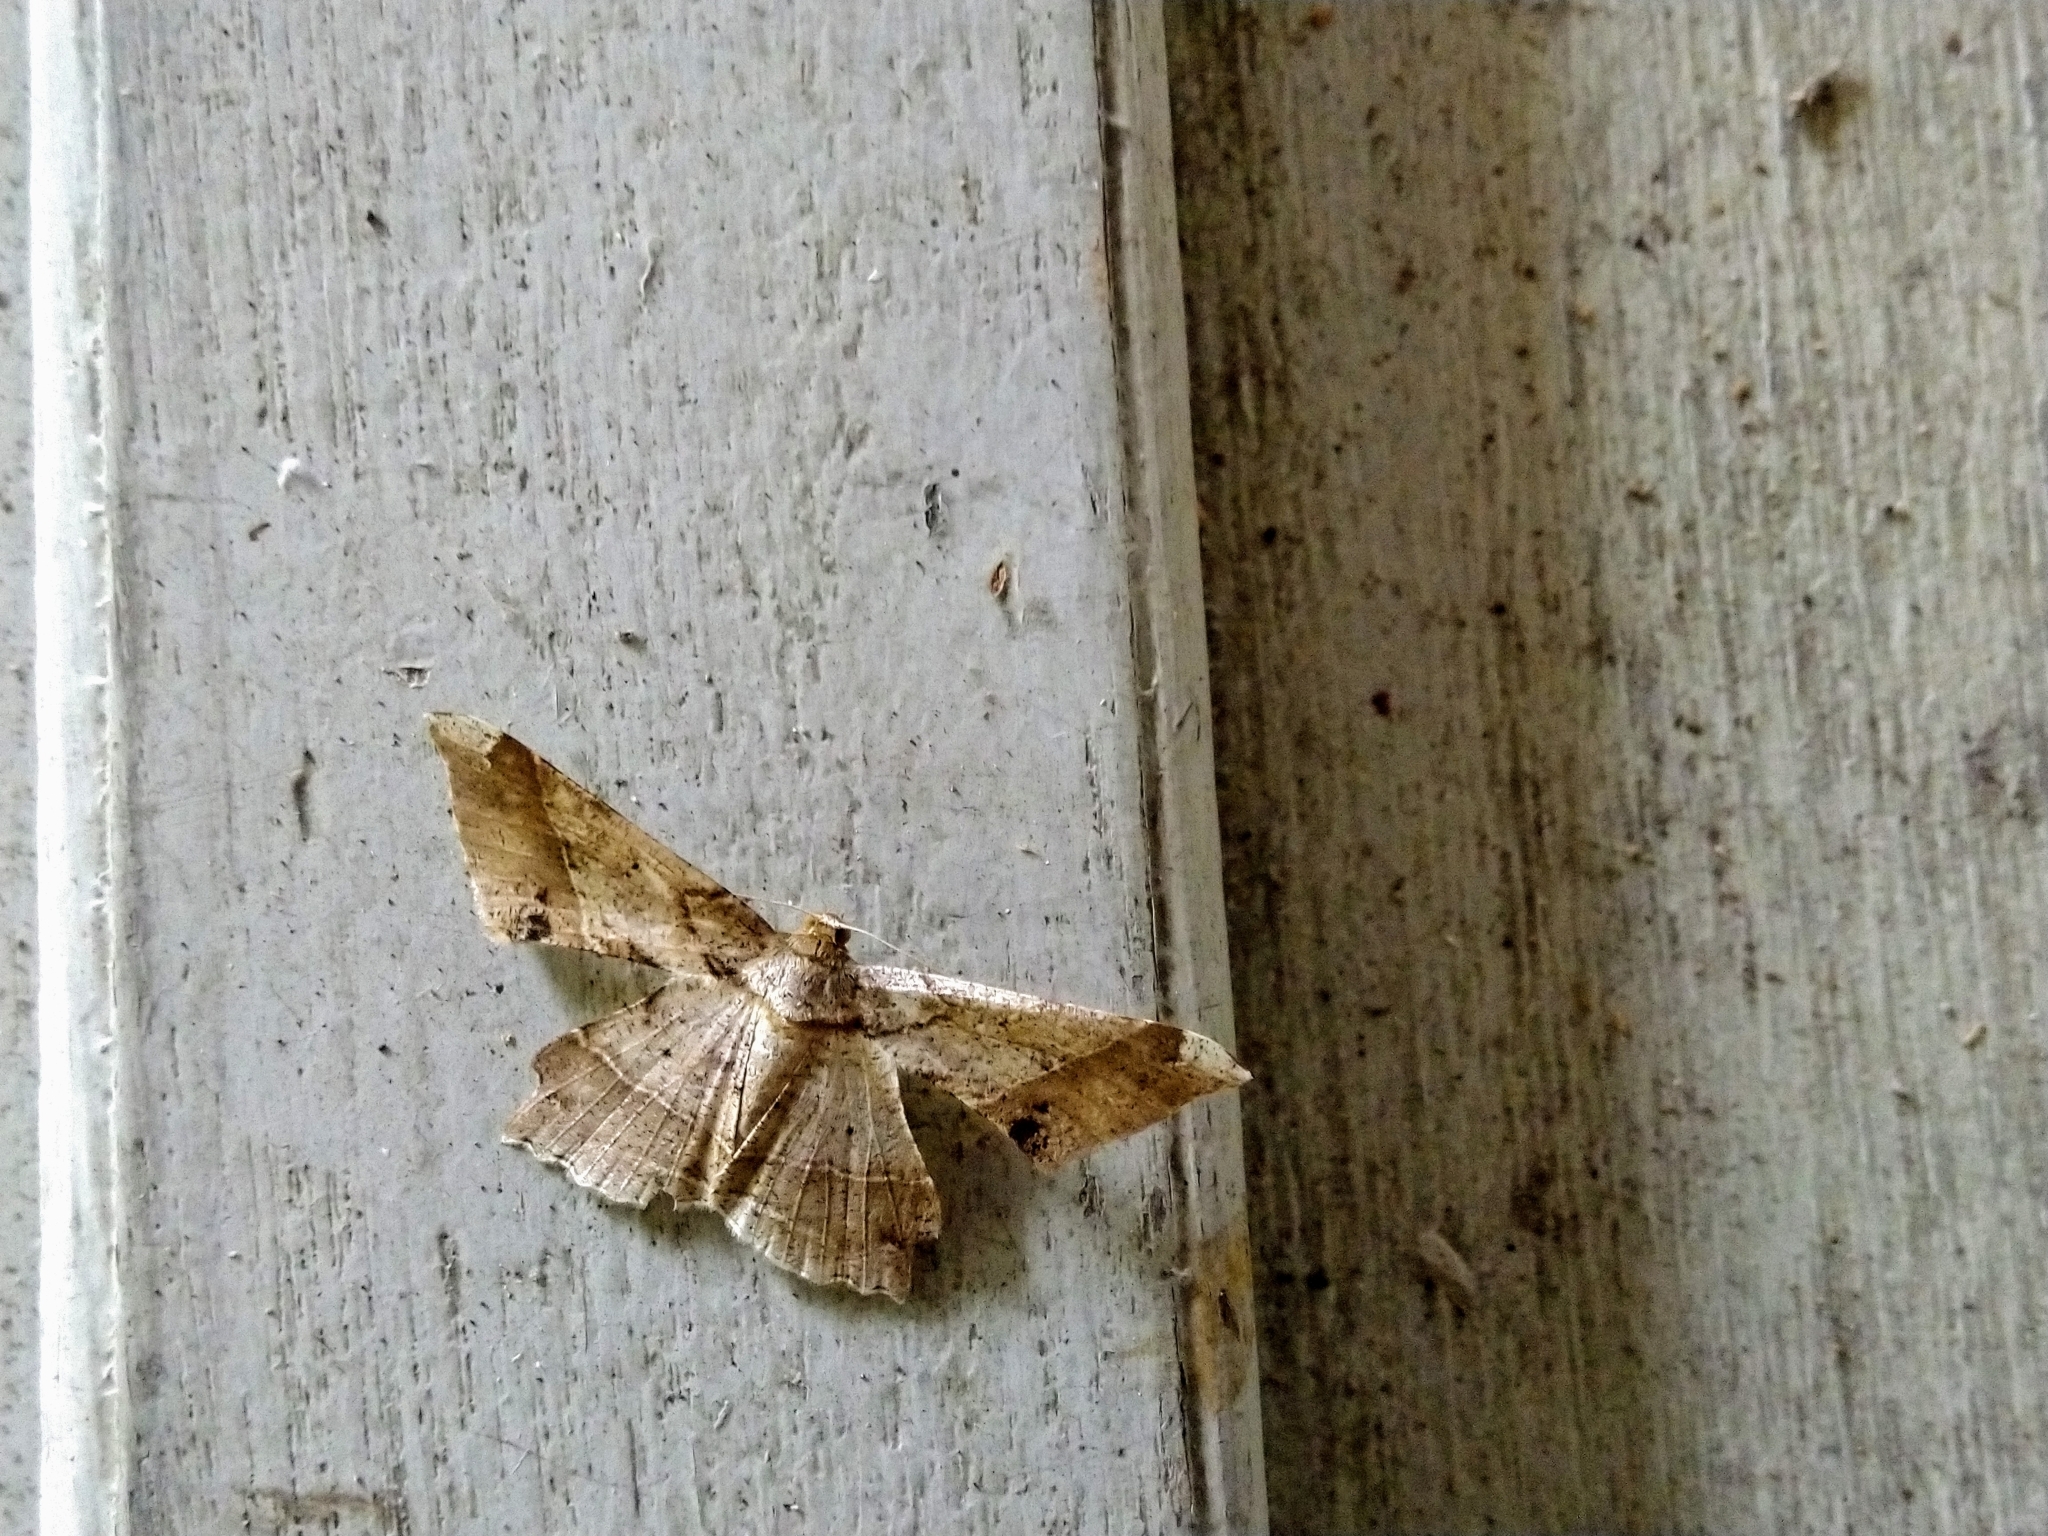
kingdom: Animalia
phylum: Arthropoda
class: Insecta
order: Lepidoptera
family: Geometridae
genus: Krananda
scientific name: Krananda latimarginaria
